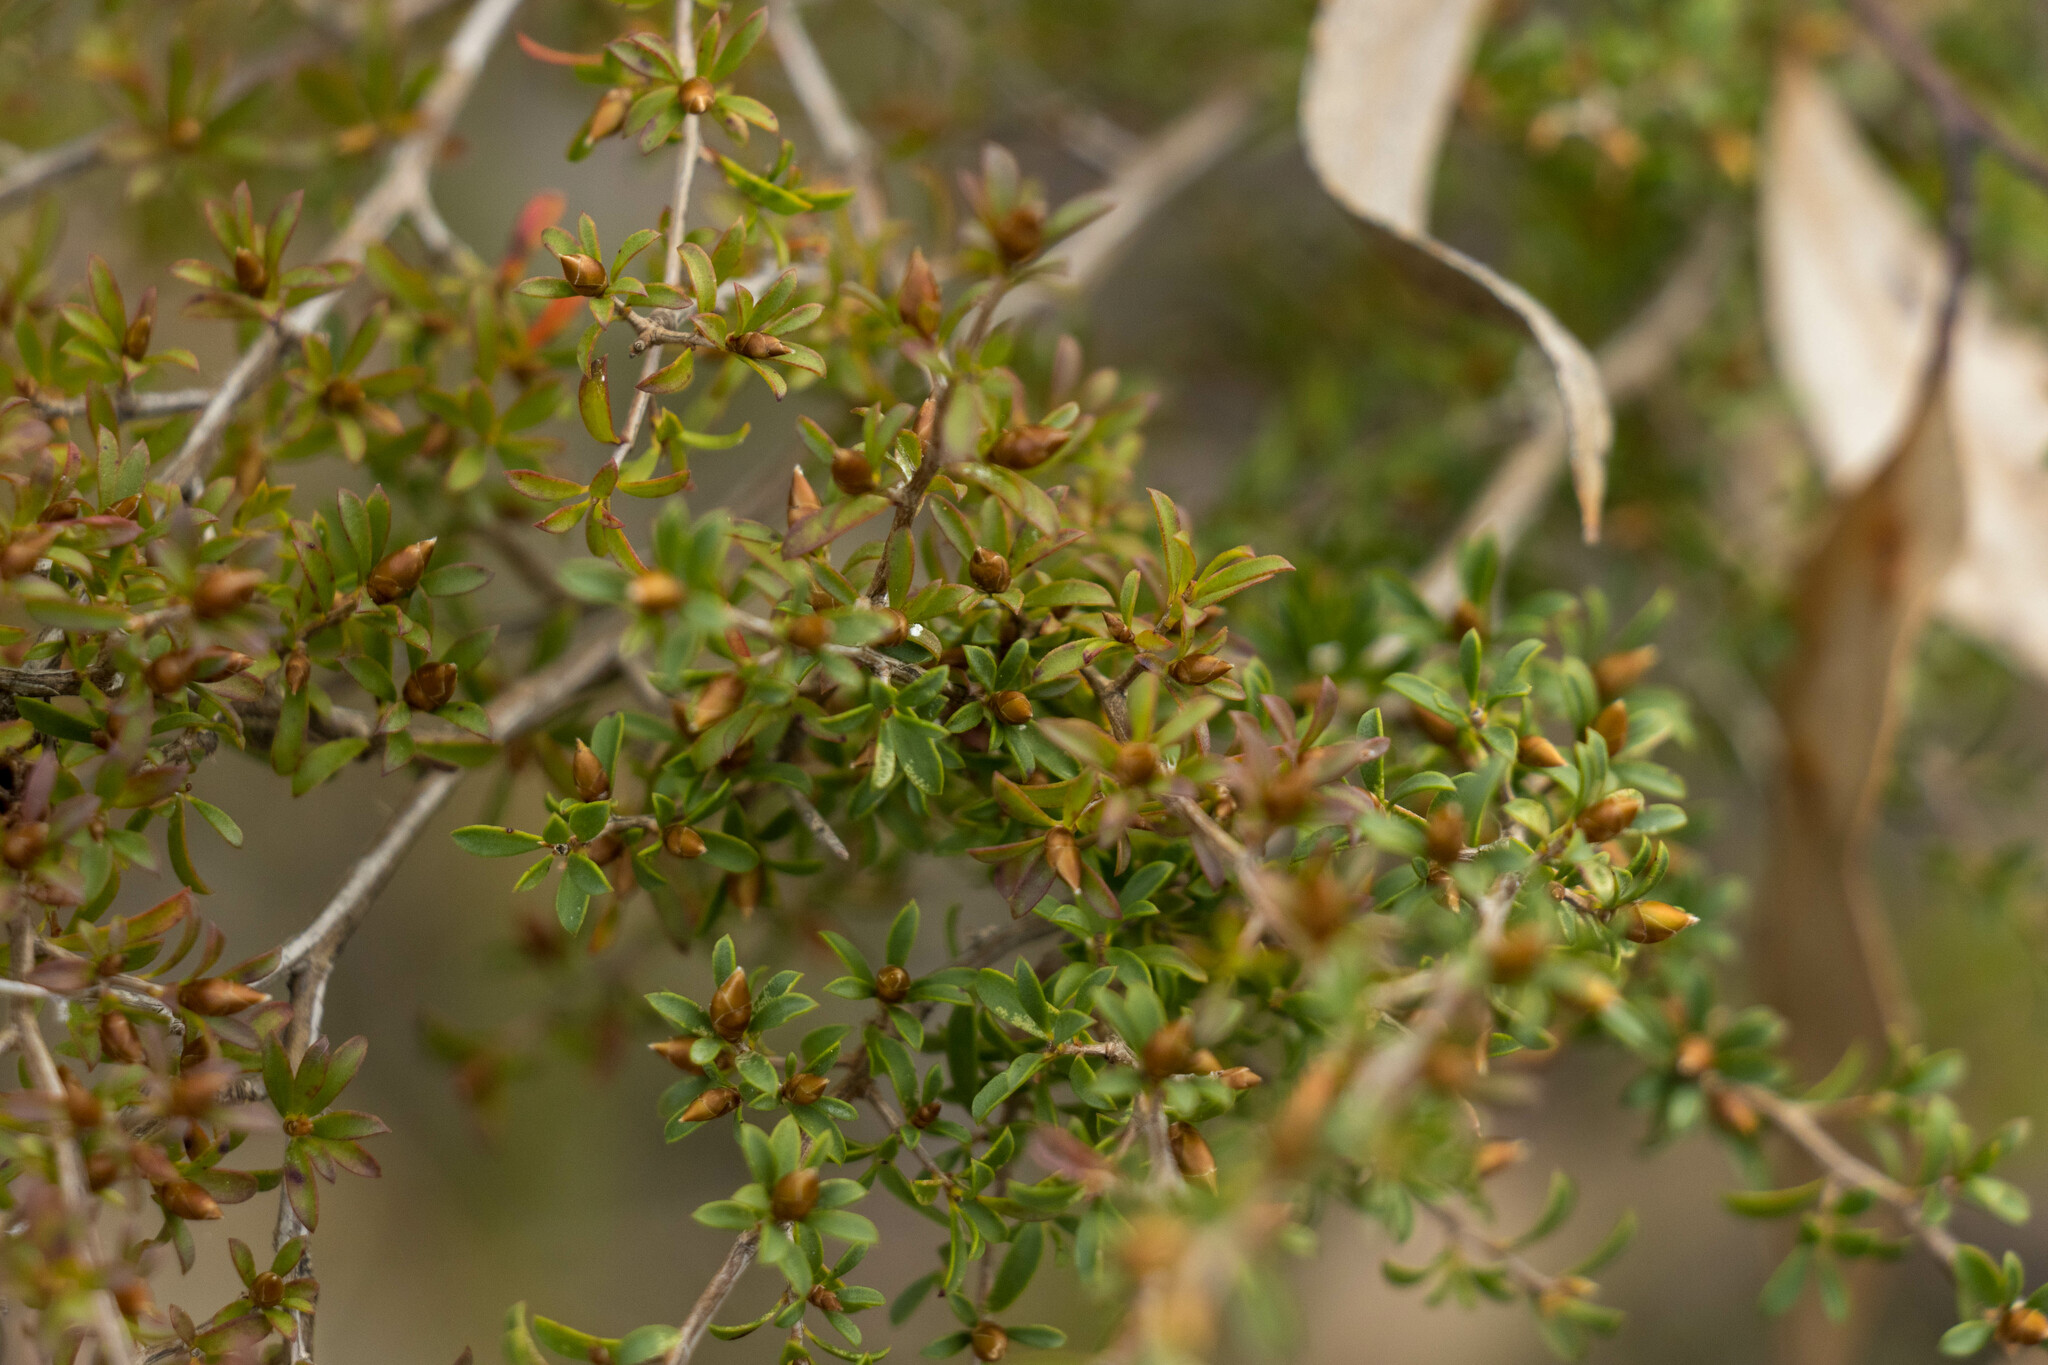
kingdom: Plantae
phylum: Tracheophyta
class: Magnoliopsida
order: Myrtales
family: Myrtaceae
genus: Leptospermum
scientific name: Leptospermum myrsinoides
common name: Heath teatree
